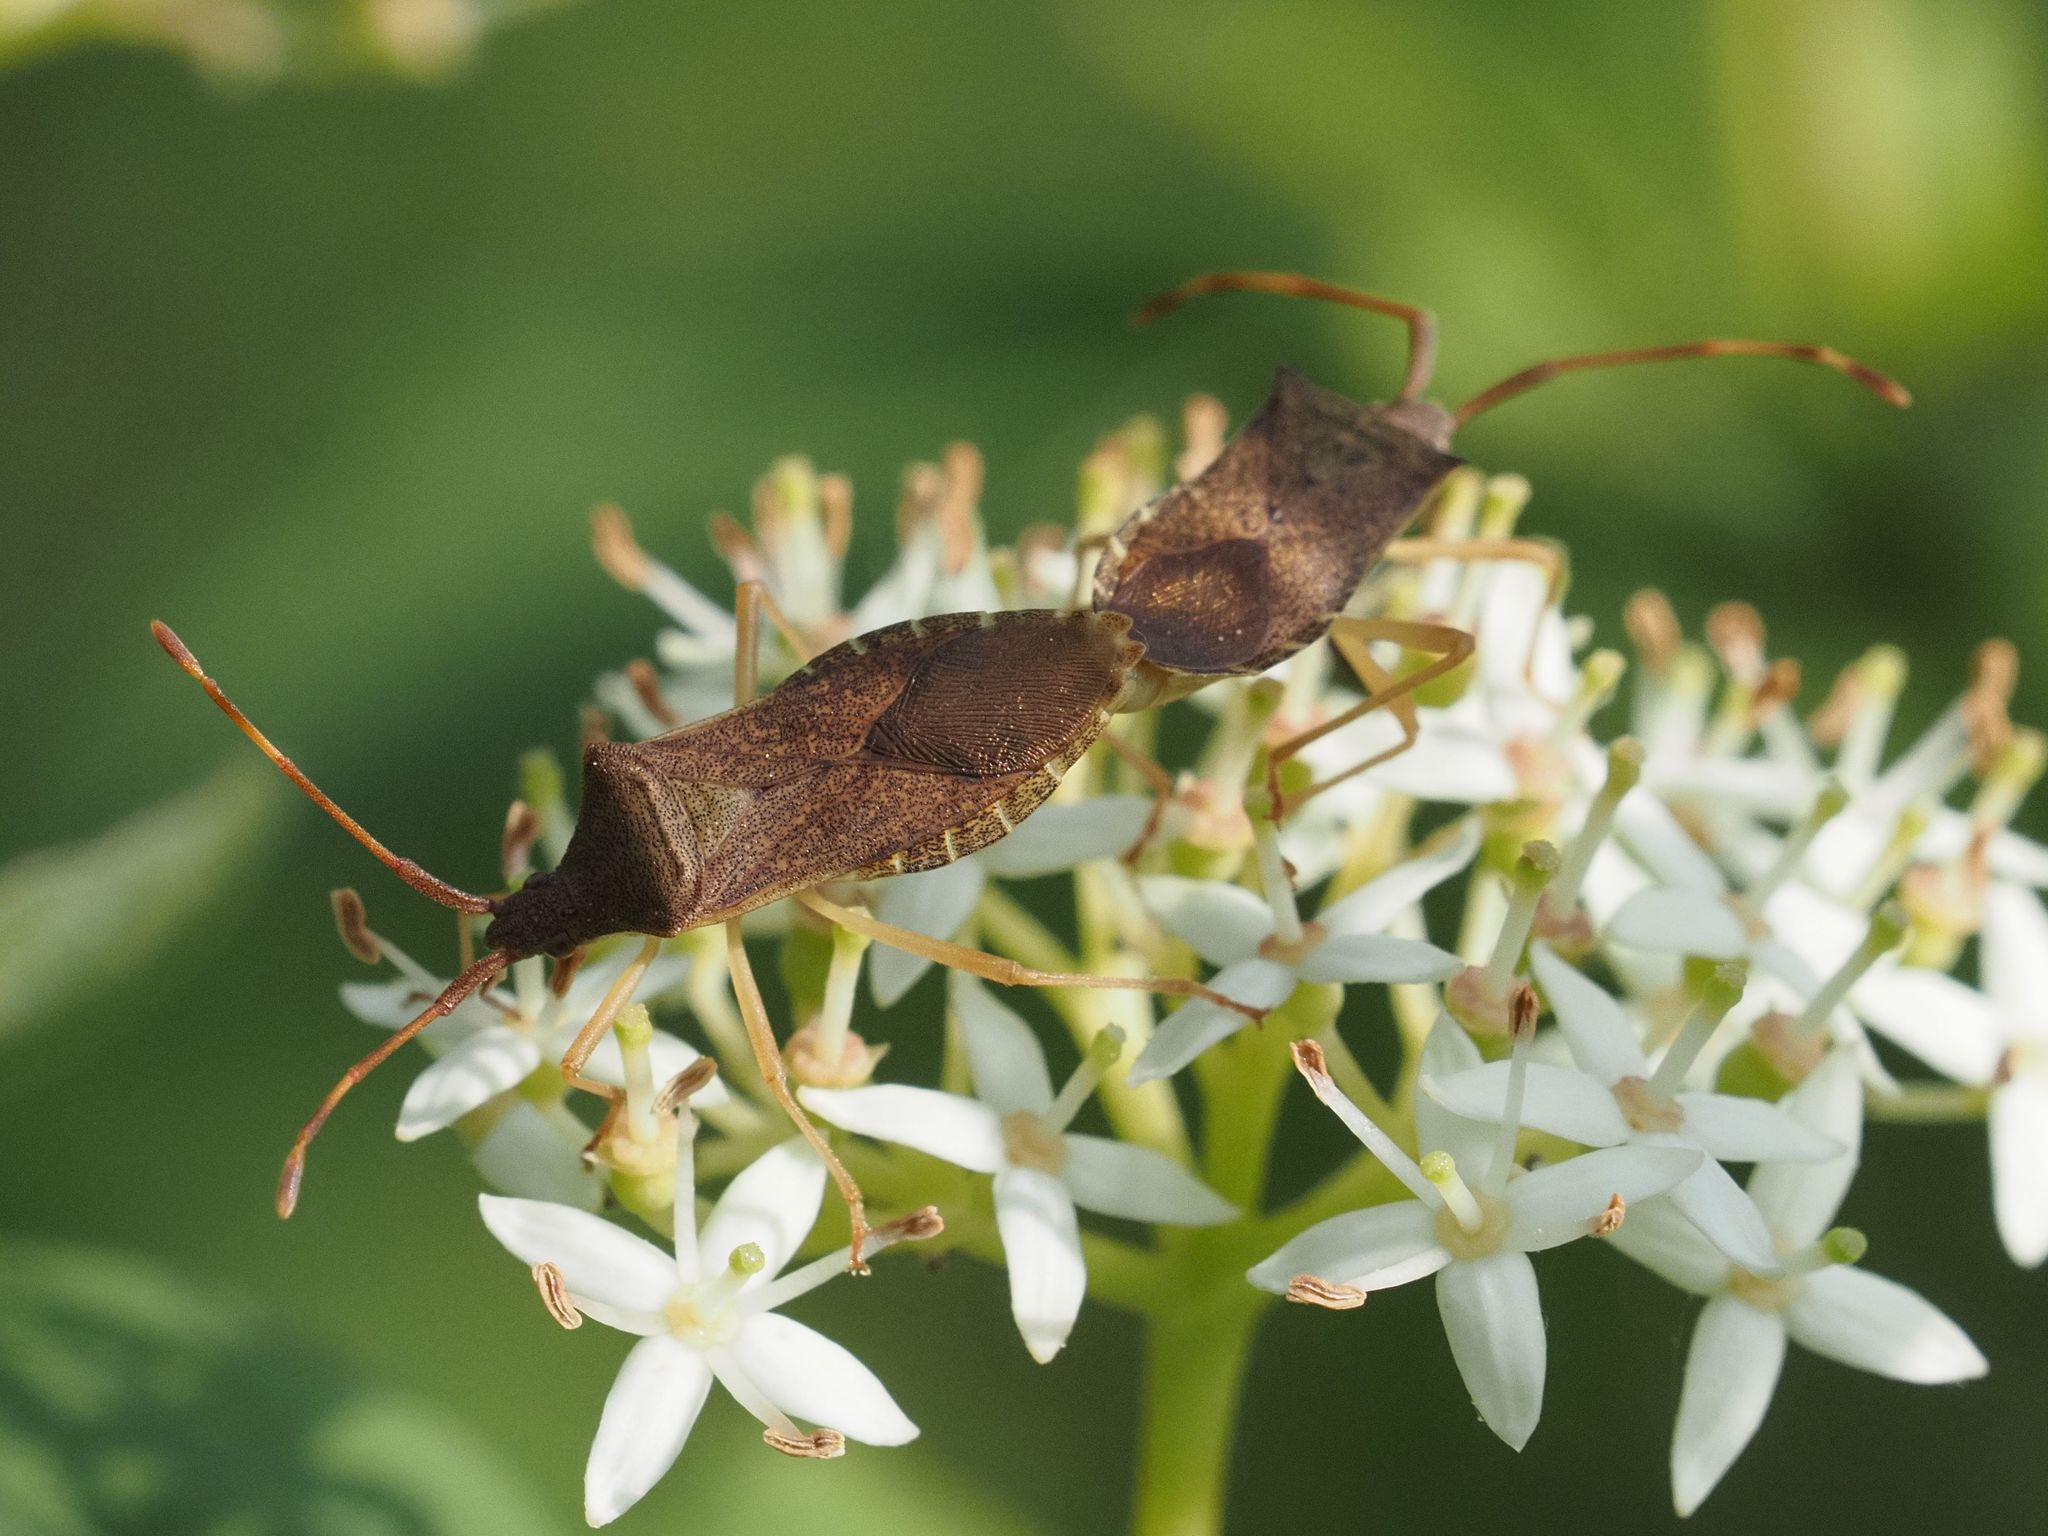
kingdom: Animalia
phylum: Arthropoda
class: Insecta
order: Hemiptera
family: Coreidae
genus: Gonocerus
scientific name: Gonocerus acuteangulatus
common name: Box bug
